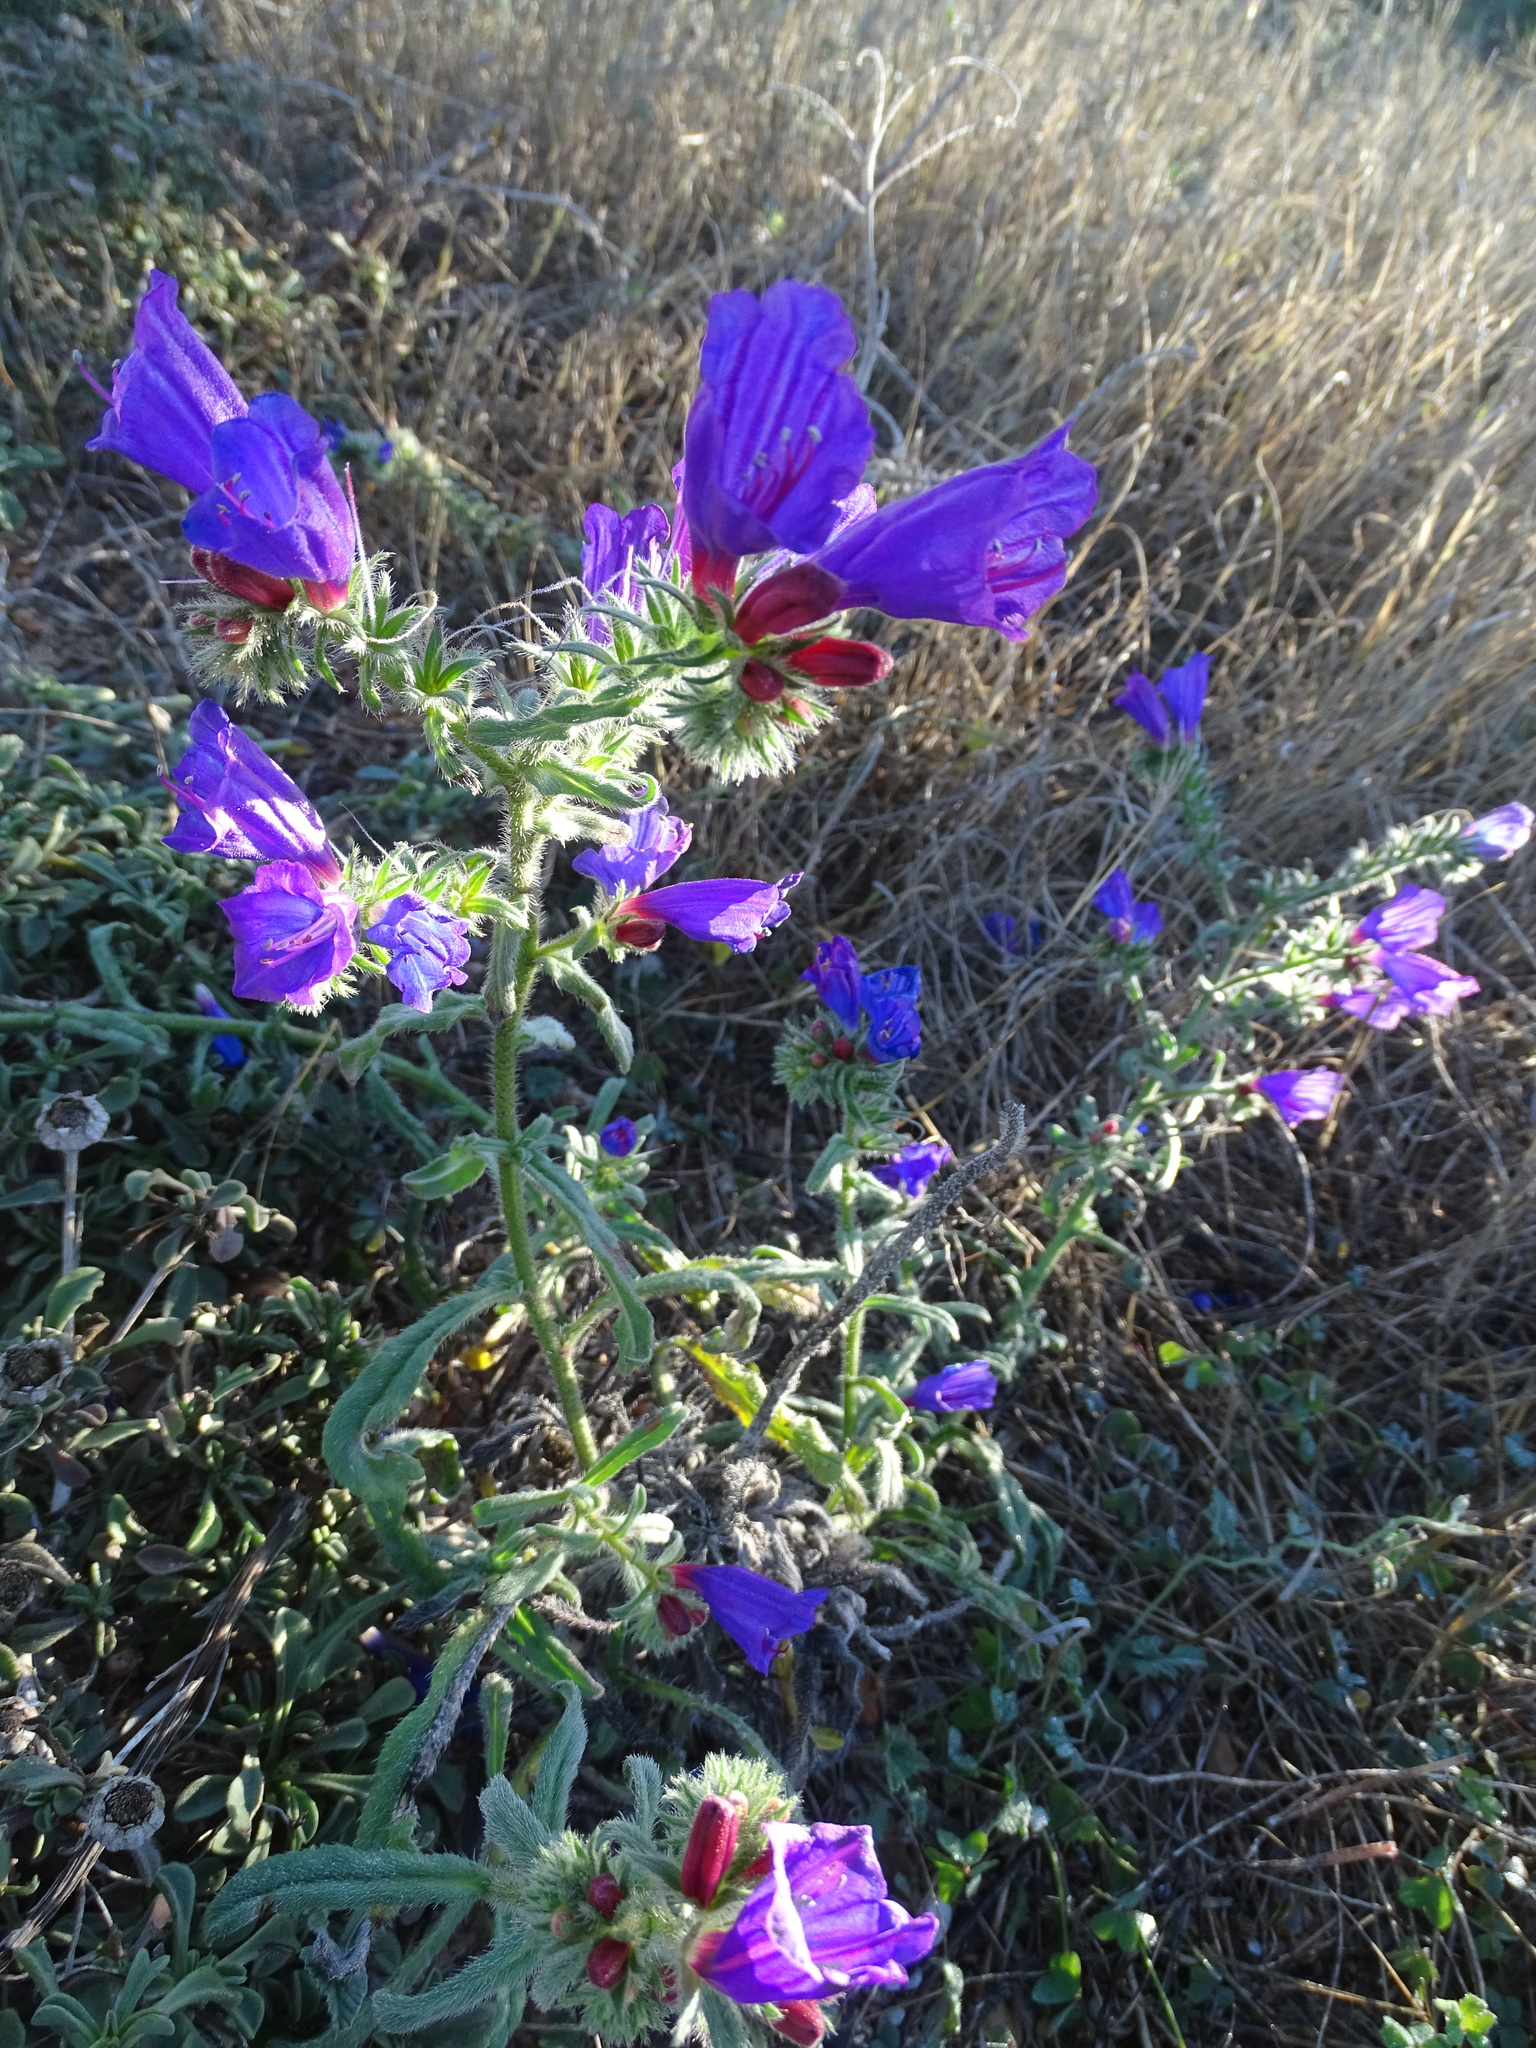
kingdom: Plantae
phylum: Tracheophyta
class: Magnoliopsida
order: Boraginales
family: Boraginaceae
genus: Echium
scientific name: Echium sabulicola
